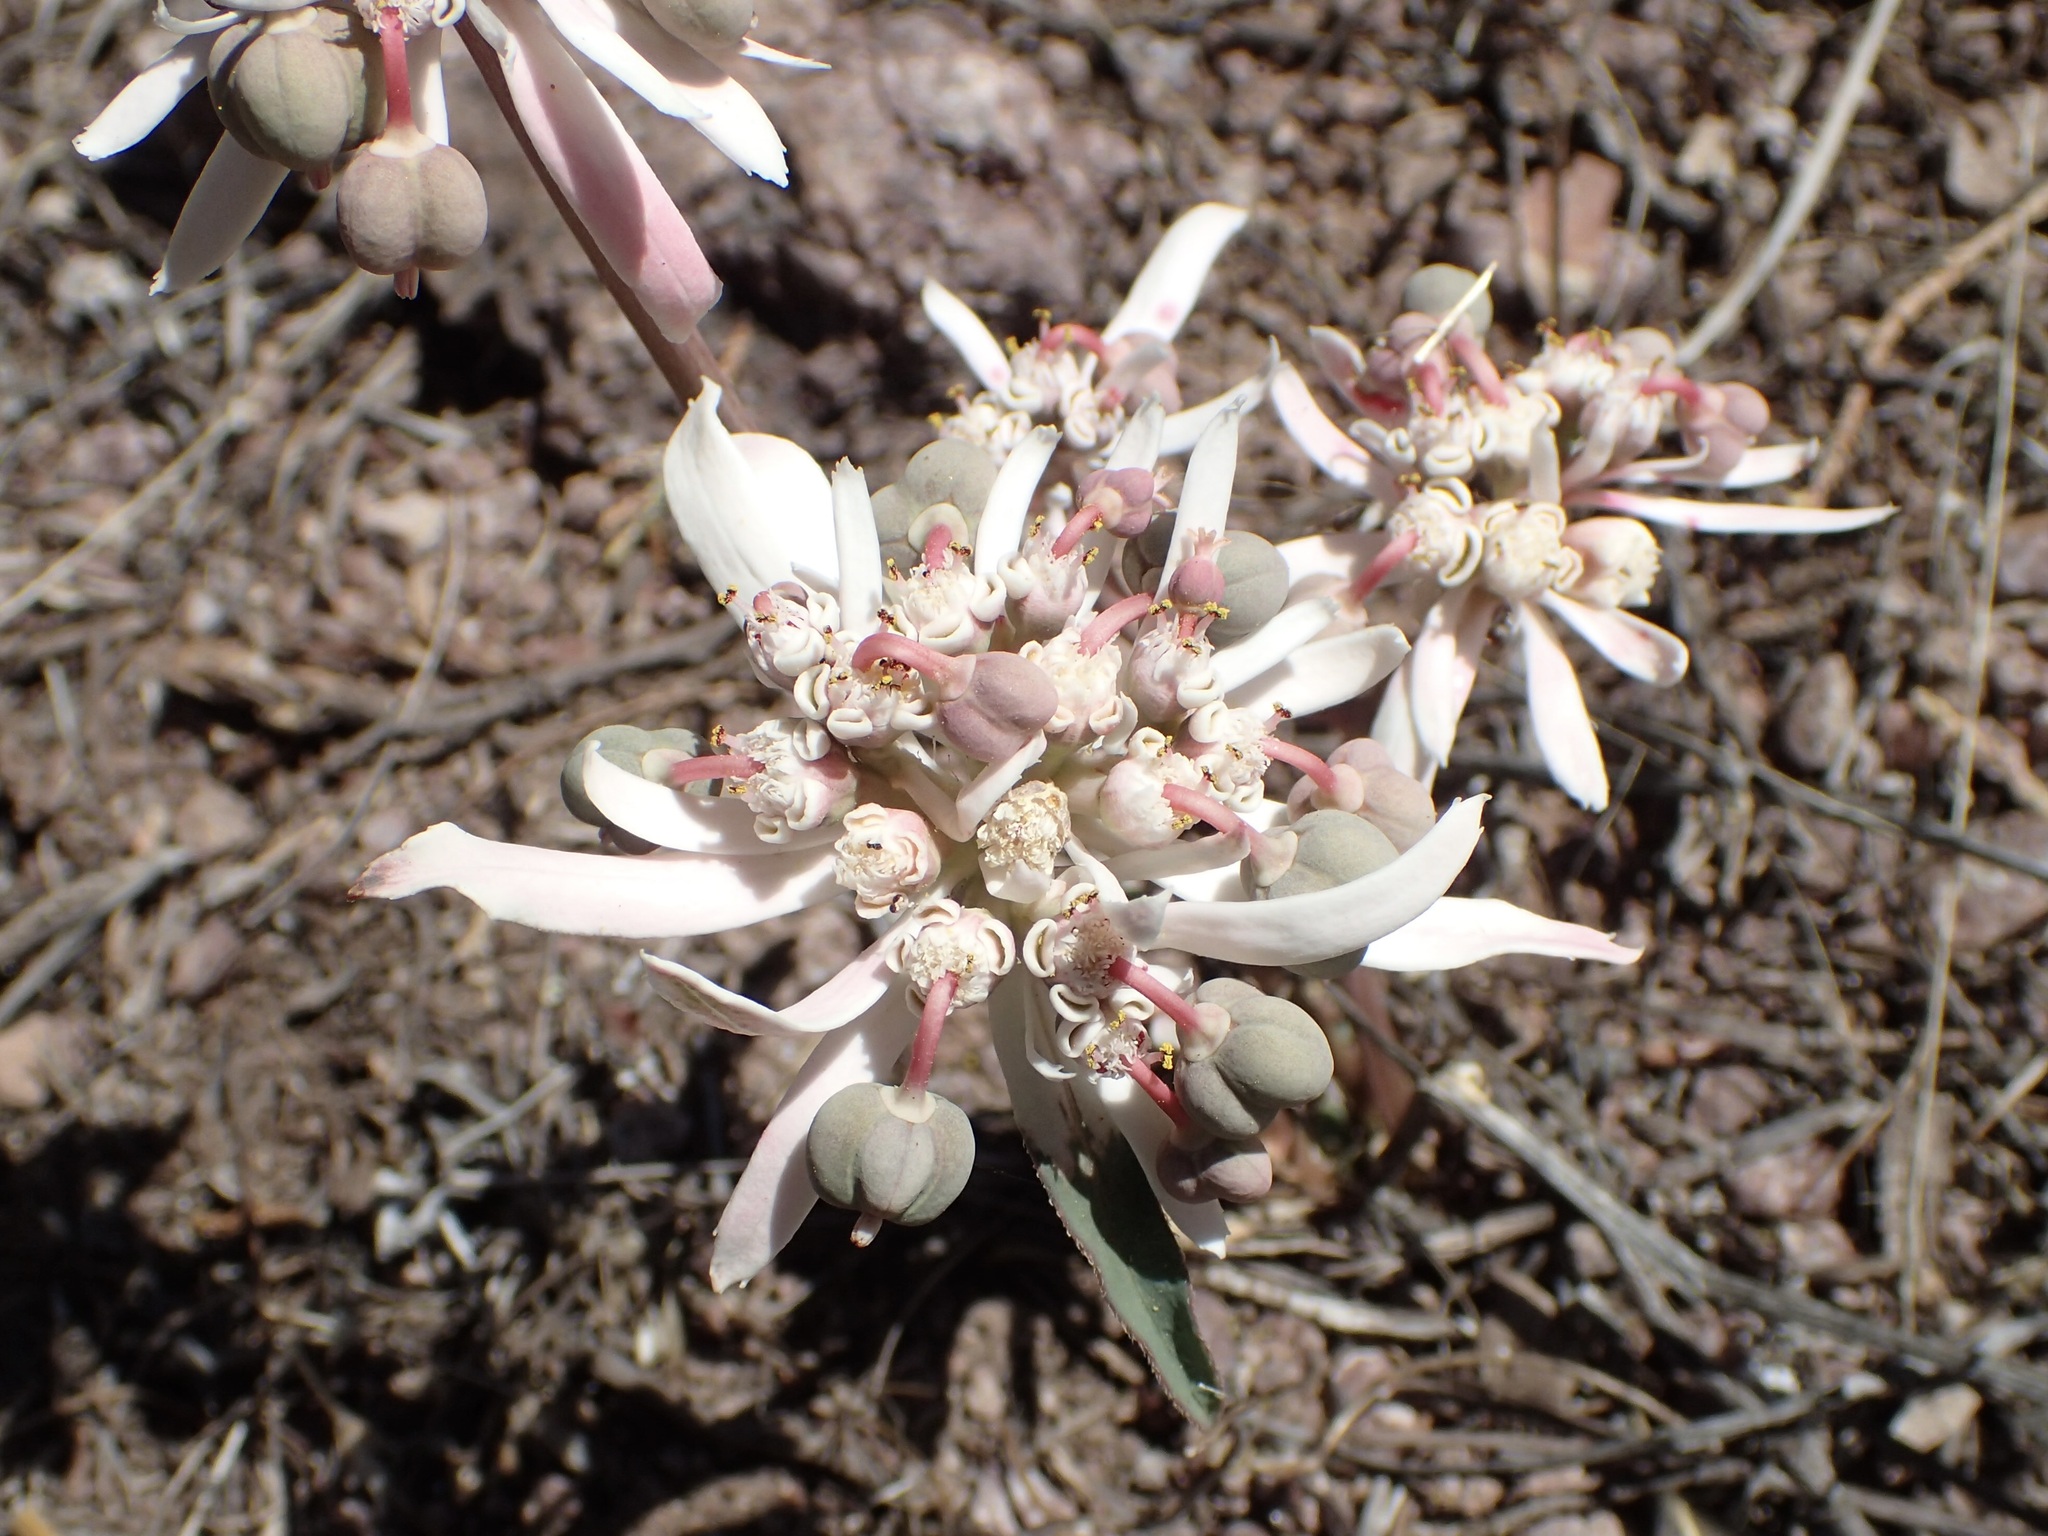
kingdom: Plantae
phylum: Tracheophyta
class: Magnoliopsida
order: Malpighiales
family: Euphorbiaceae
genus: Euphorbia
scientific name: Euphorbia radians
